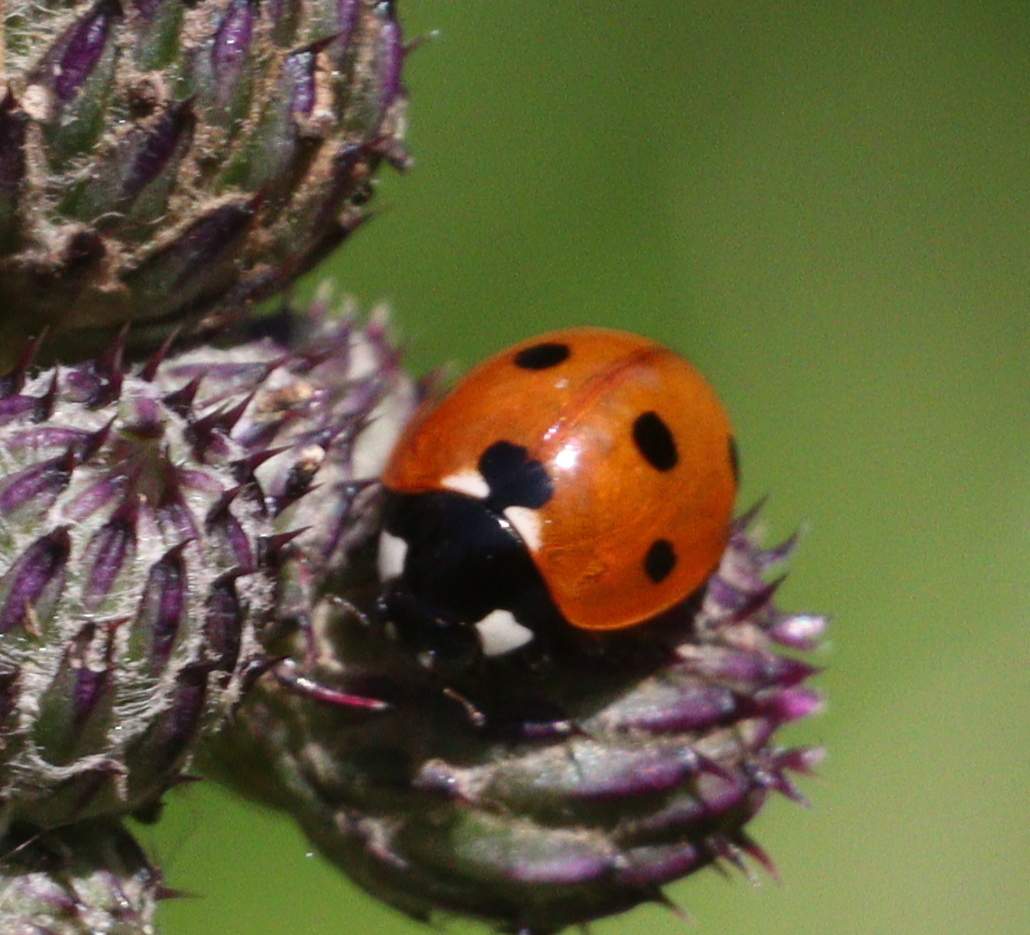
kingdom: Animalia
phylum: Arthropoda
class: Insecta
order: Coleoptera
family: Coccinellidae
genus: Coccinella
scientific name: Coccinella septempunctata
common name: Sevenspotted lady beetle
